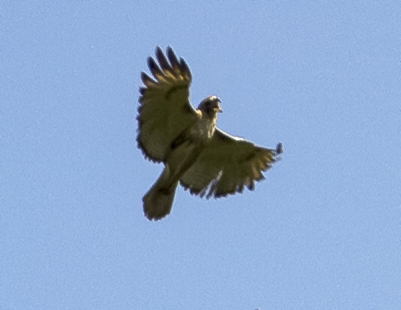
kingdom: Animalia
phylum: Chordata
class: Aves
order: Accipitriformes
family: Accipitridae
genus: Buteo
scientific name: Buteo jamaicensis
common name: Red-tailed hawk
